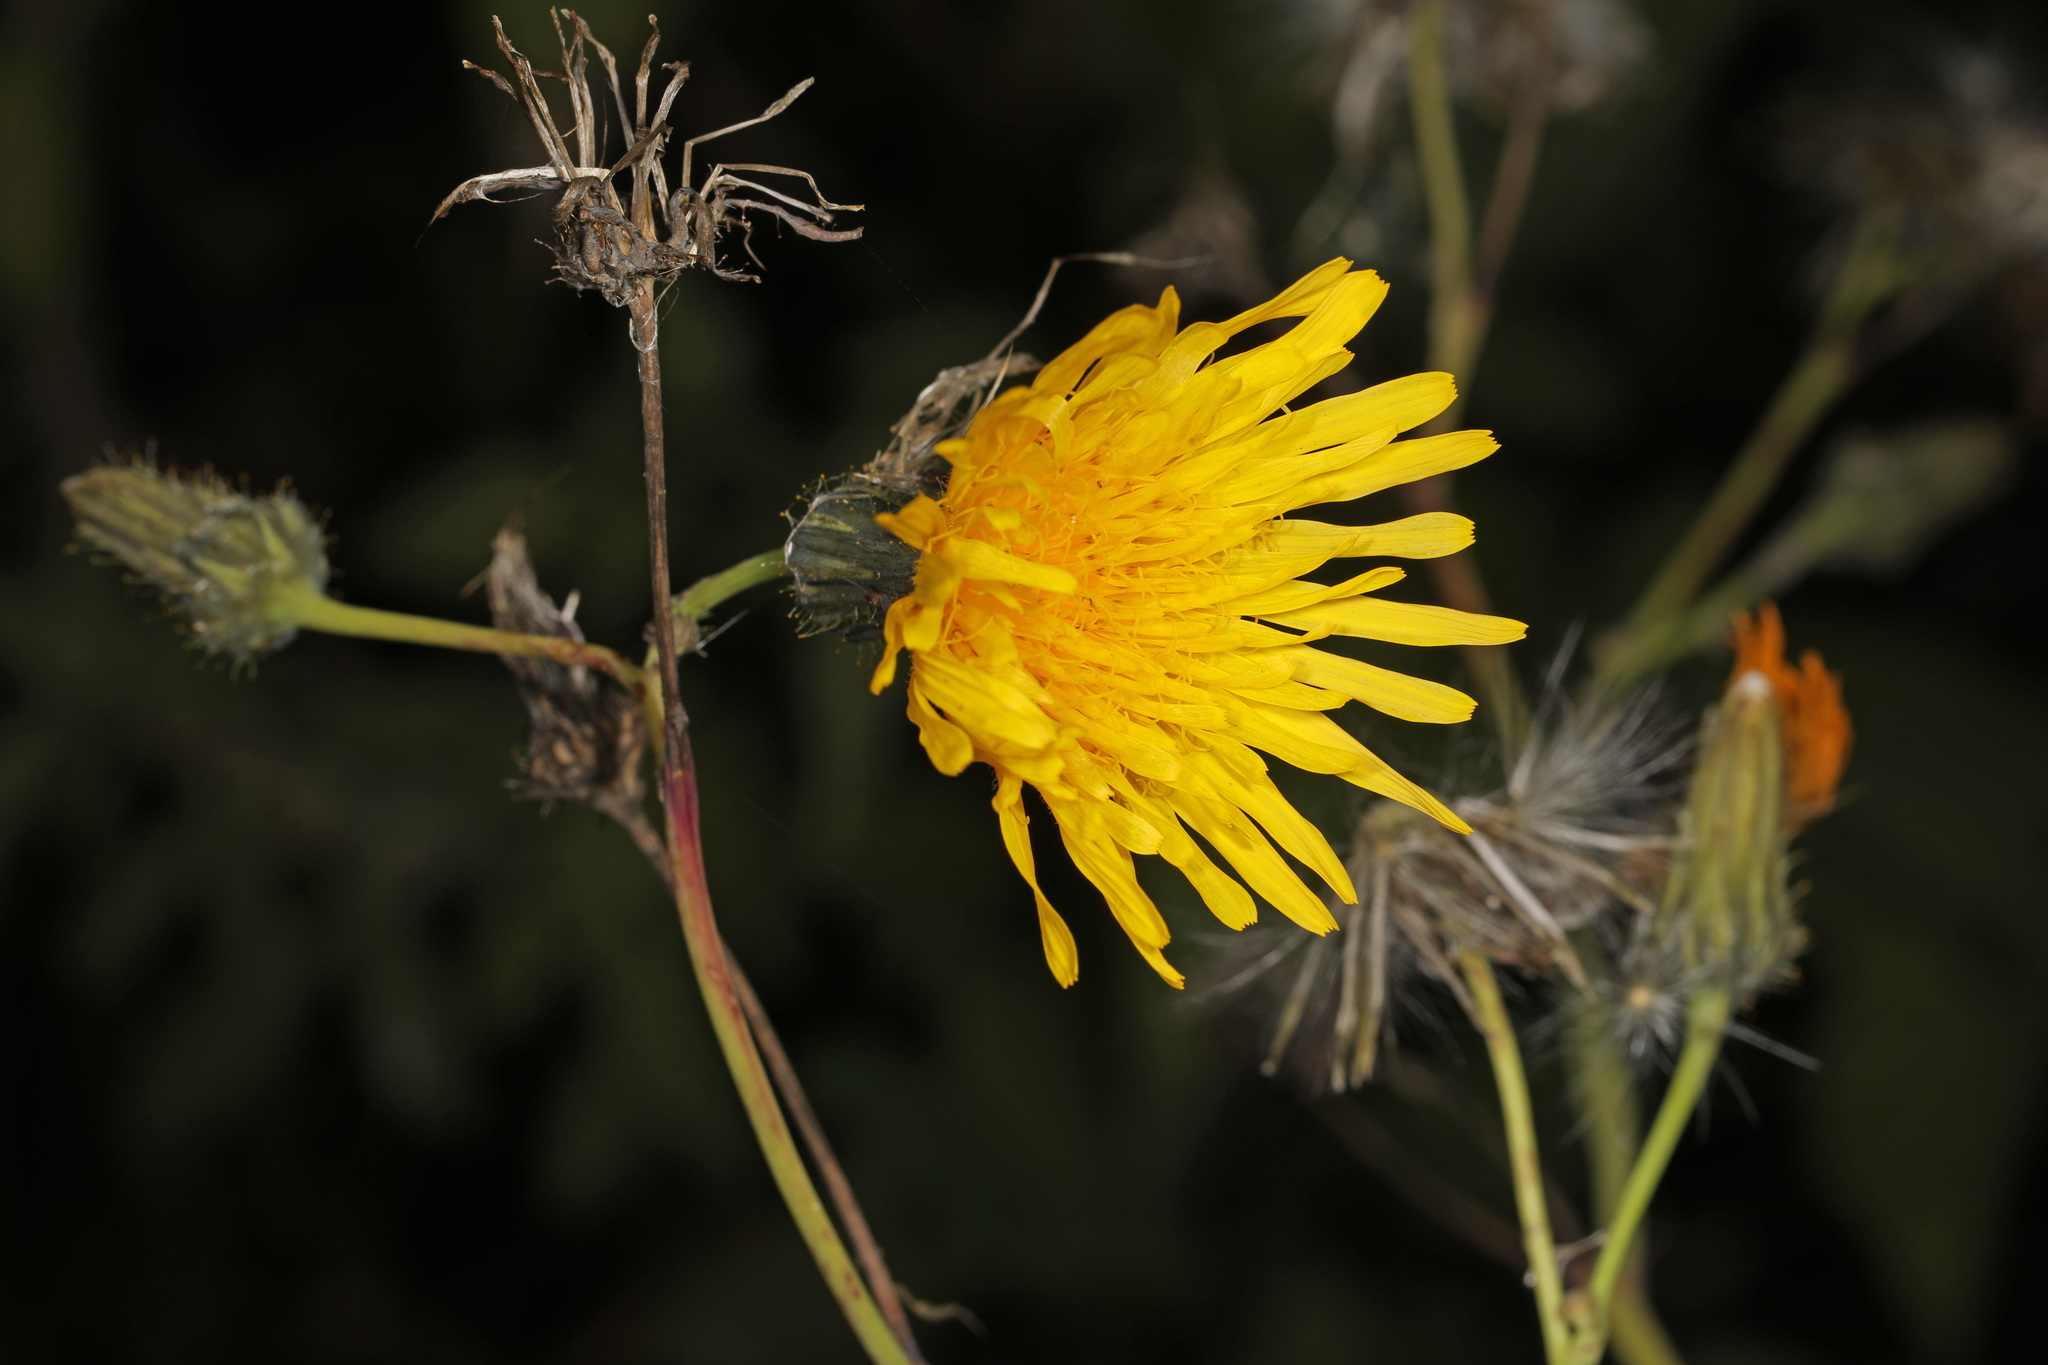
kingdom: Plantae
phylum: Tracheophyta
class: Magnoliopsida
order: Asterales
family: Asteraceae
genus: Sonchus
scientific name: Sonchus arvensis
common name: Perennial sow-thistle
